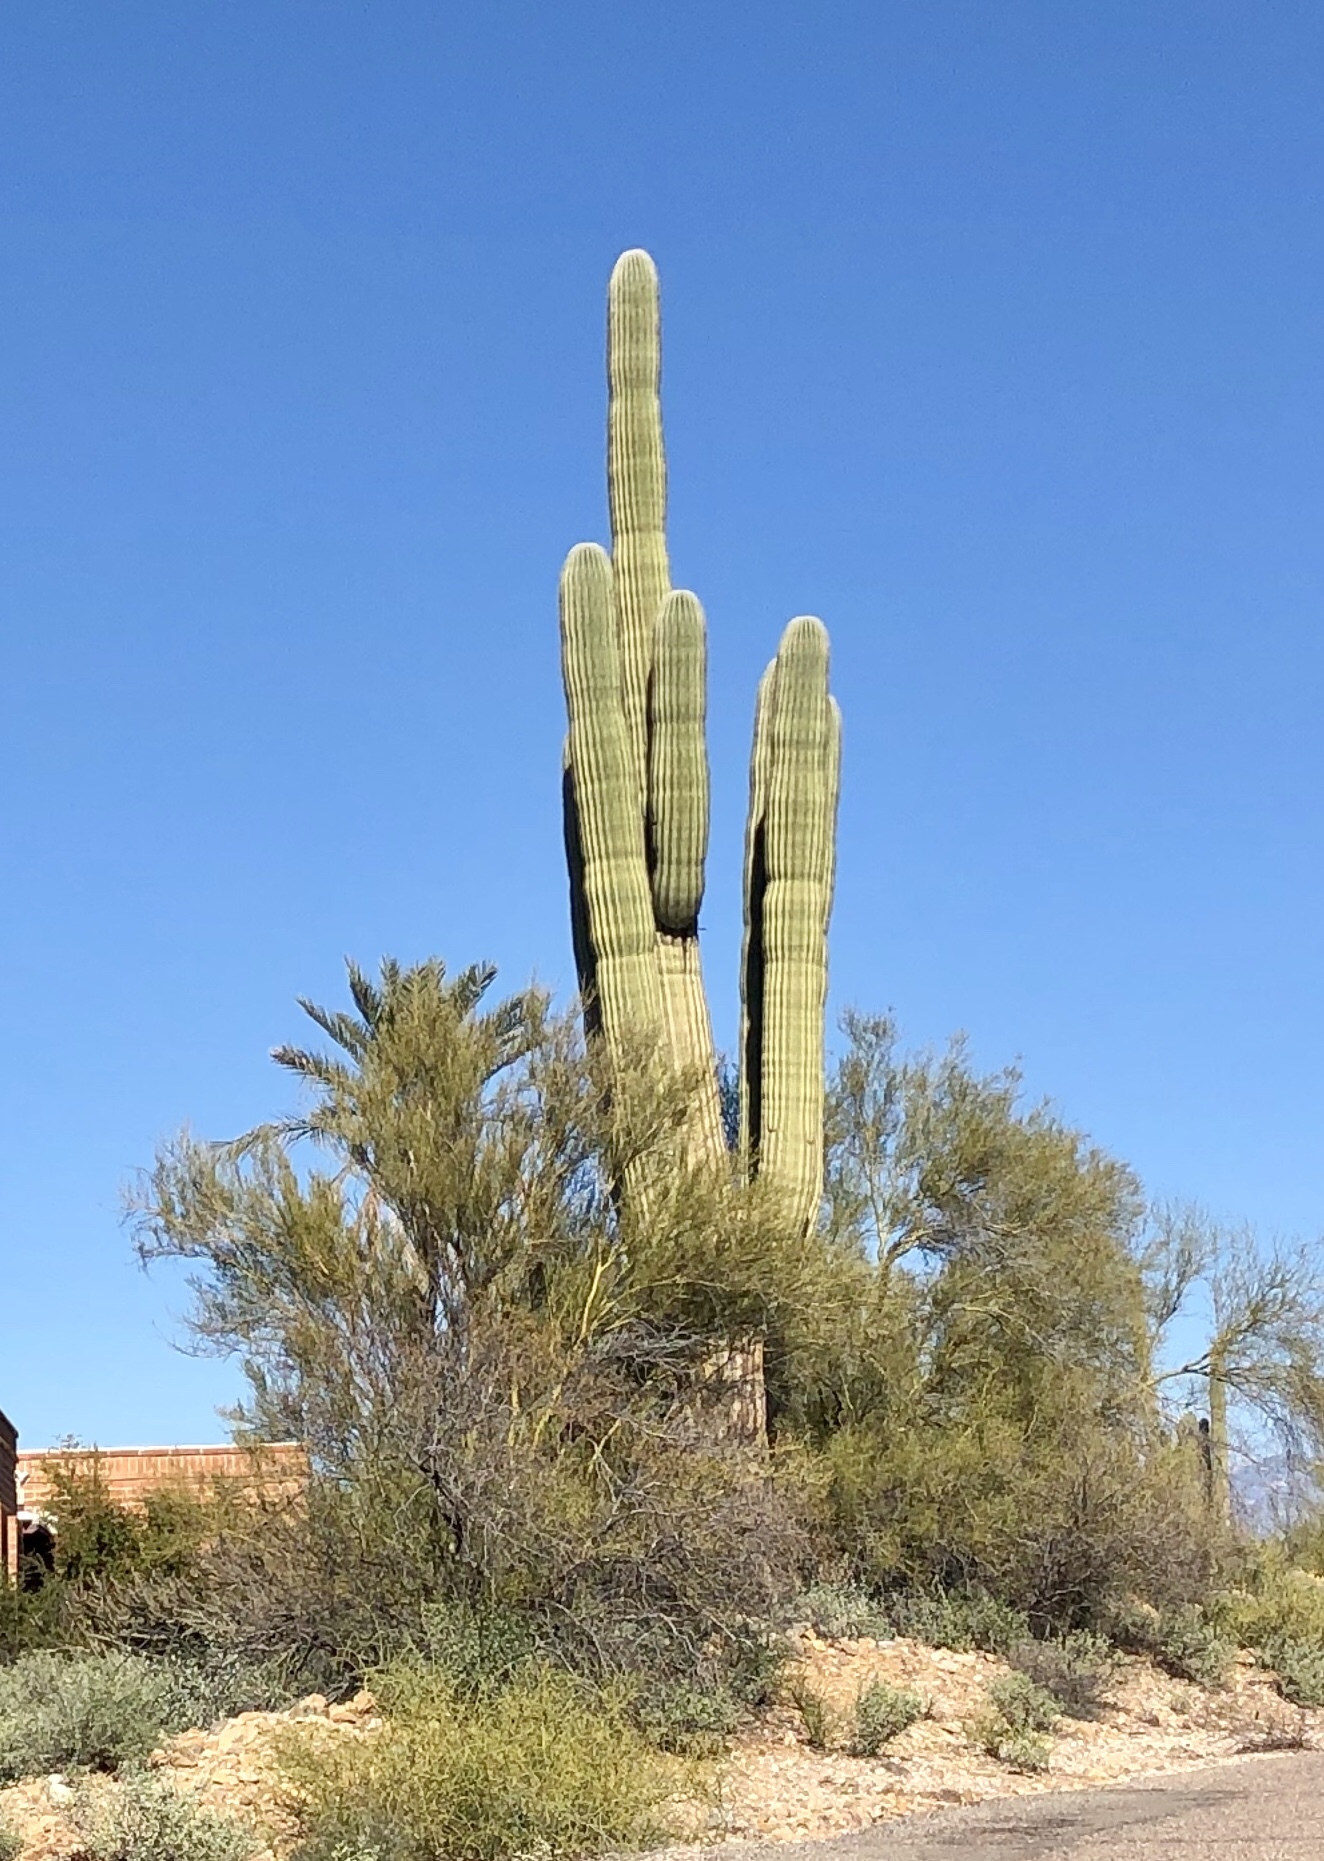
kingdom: Plantae
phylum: Tracheophyta
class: Magnoliopsida
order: Caryophyllales
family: Cactaceae
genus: Carnegiea
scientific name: Carnegiea gigantea
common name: Saguaro
